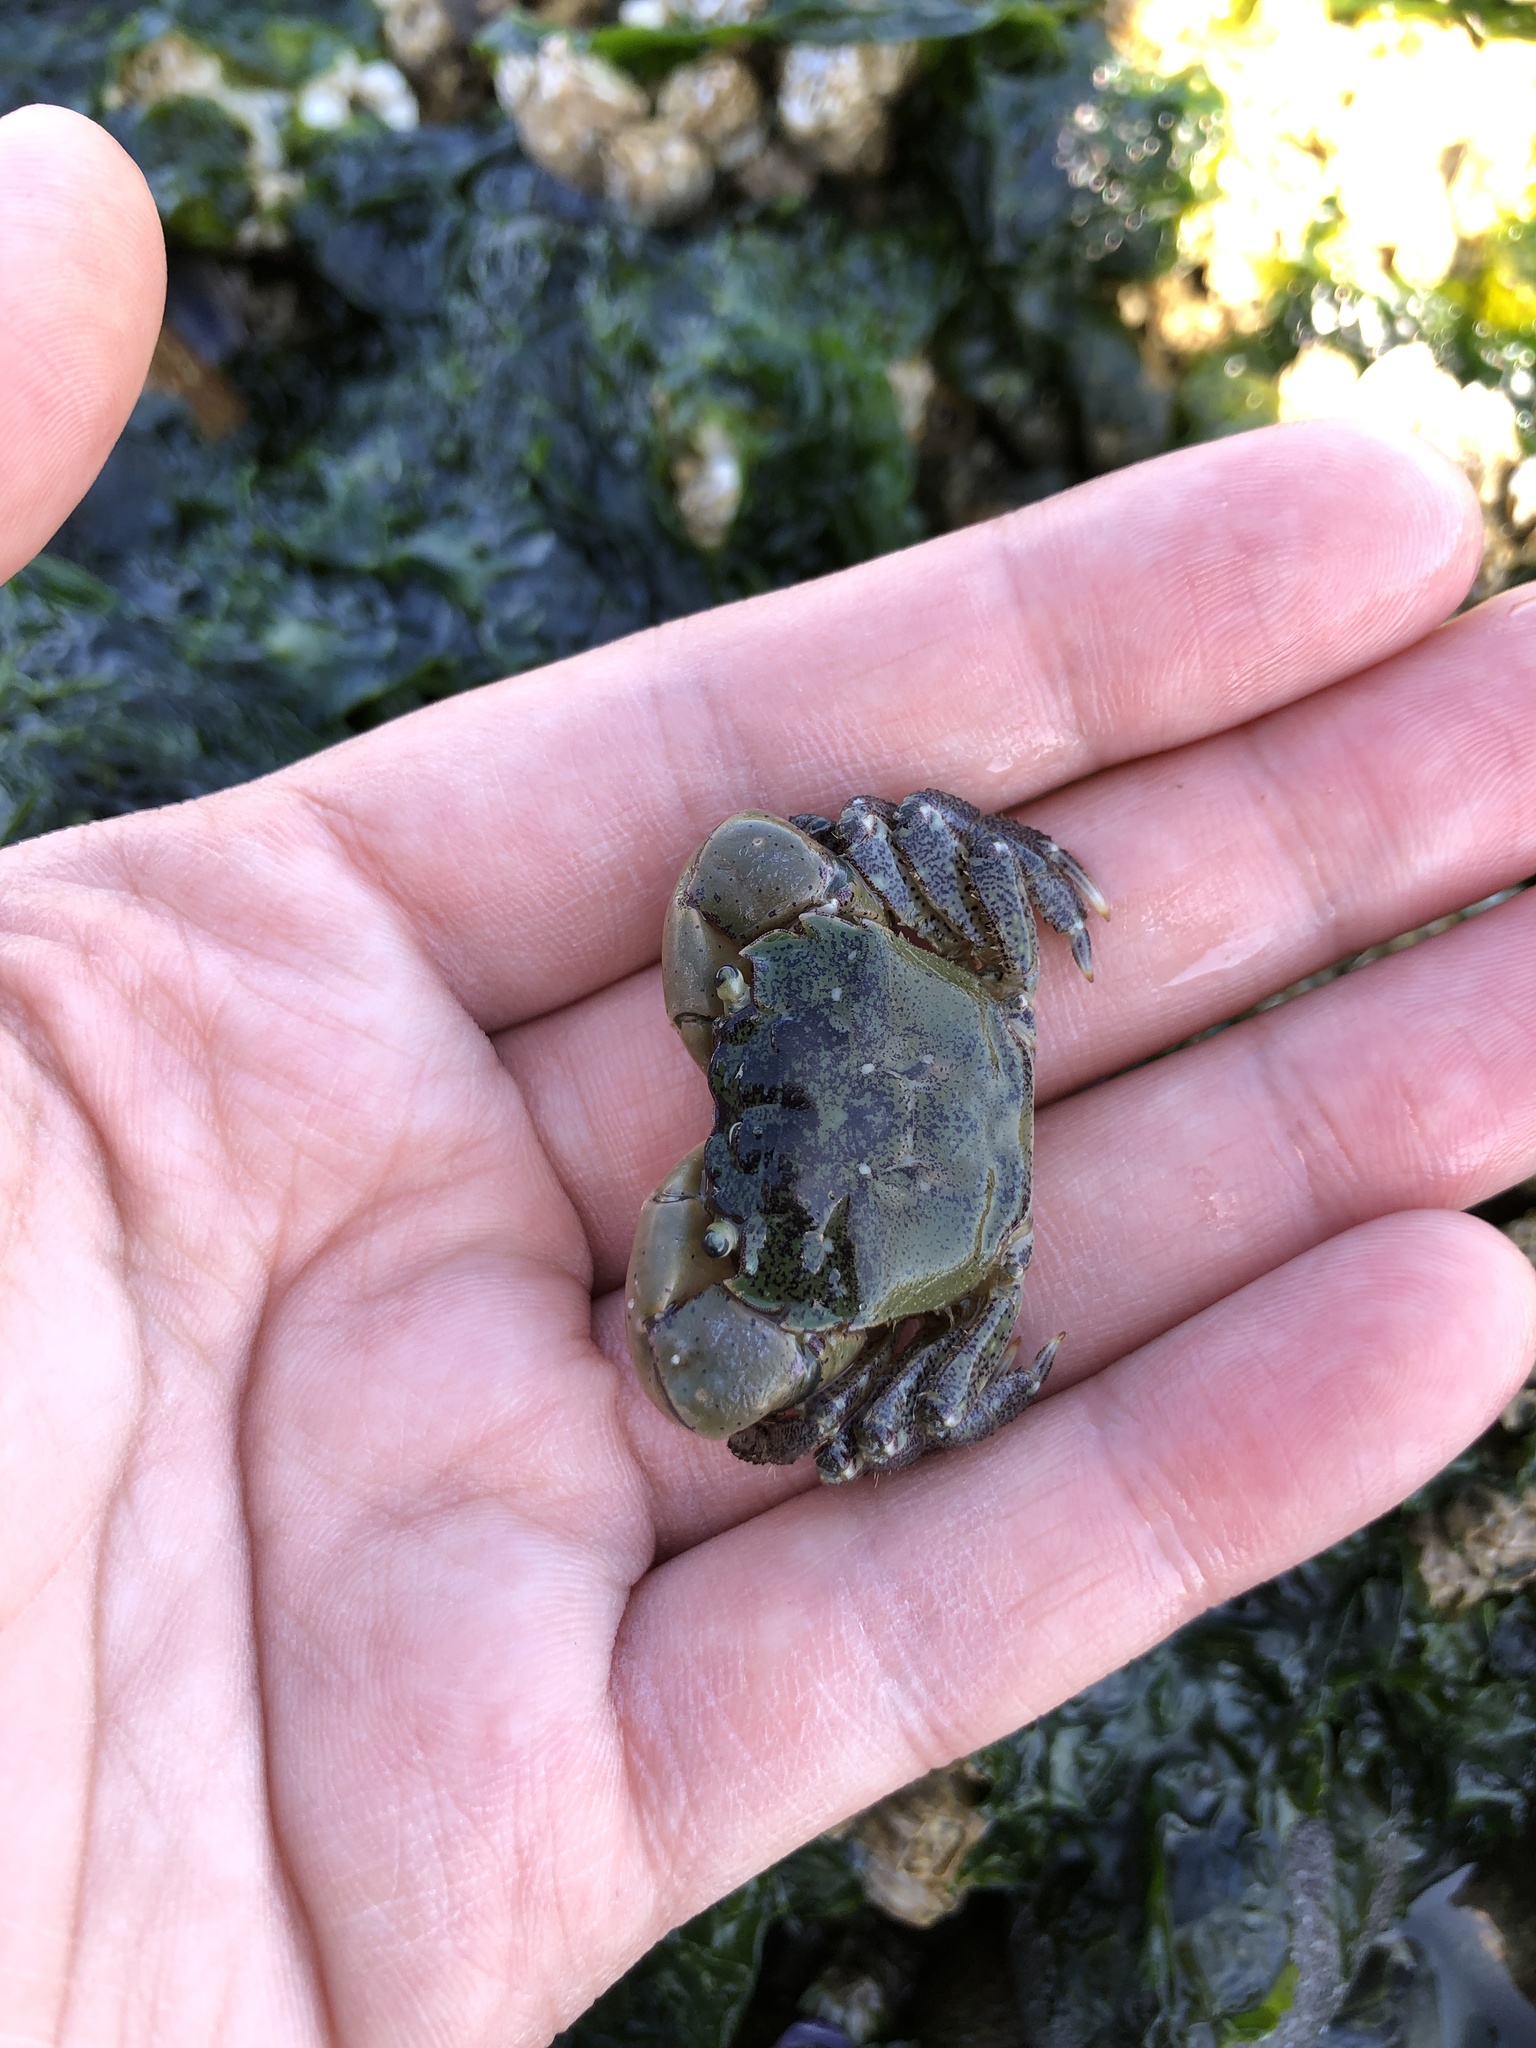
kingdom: Animalia
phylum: Arthropoda
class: Malacostraca
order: Decapoda
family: Varunidae
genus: Hemigrapsus
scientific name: Hemigrapsus oregonensis
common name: Yellow shore crab
